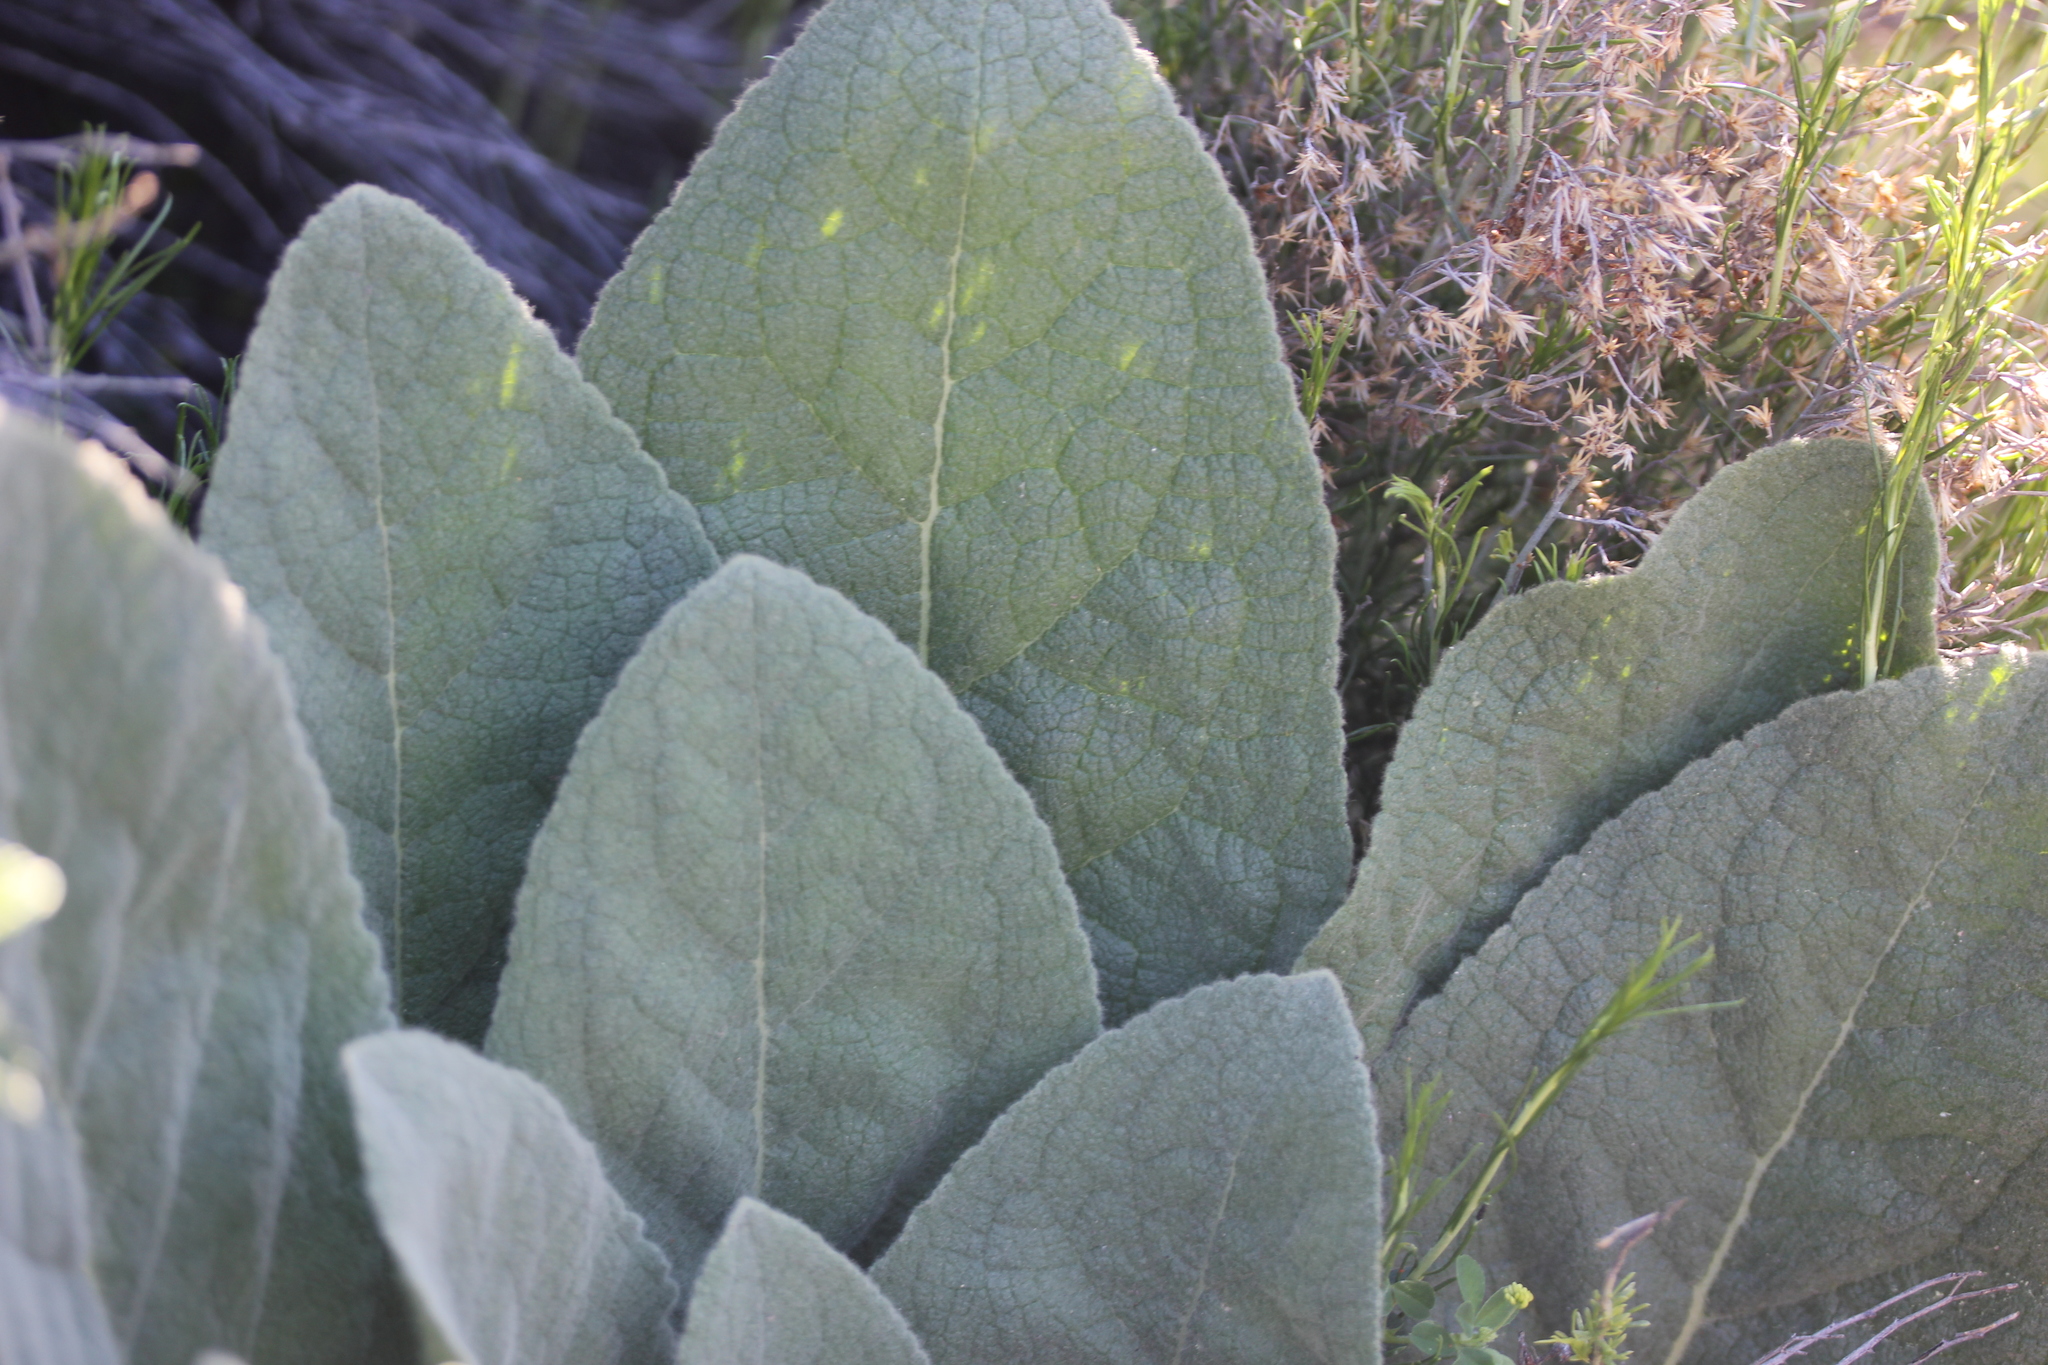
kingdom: Plantae
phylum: Tracheophyta
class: Magnoliopsida
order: Lamiales
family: Scrophulariaceae
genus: Verbascum
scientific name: Verbascum thapsus
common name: Common mullein
